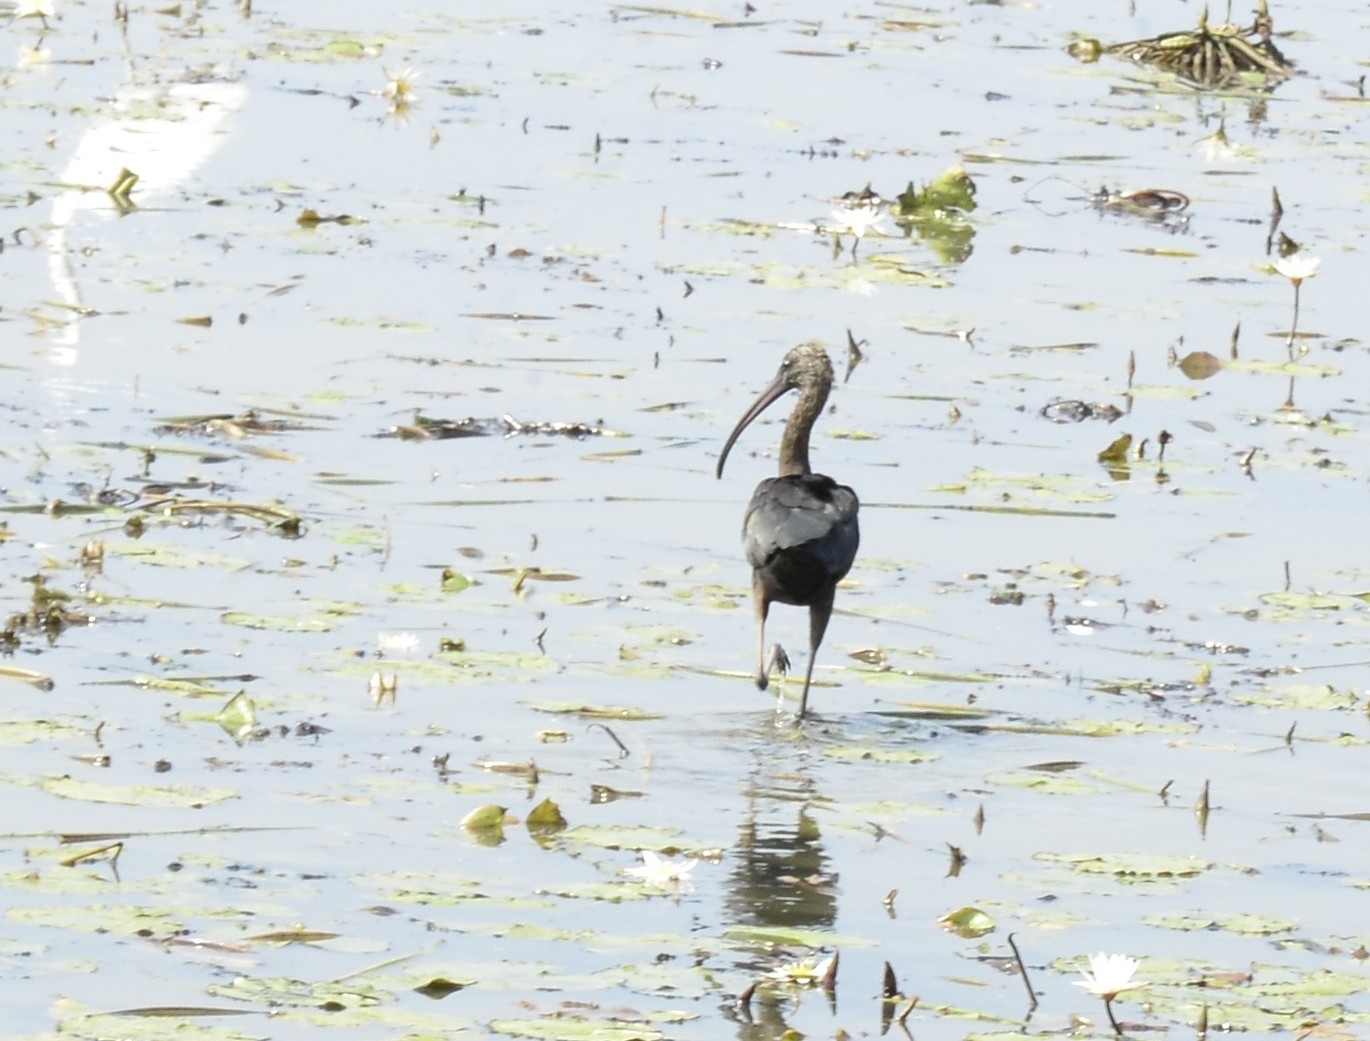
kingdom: Animalia
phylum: Chordata
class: Aves
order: Pelecaniformes
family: Threskiornithidae
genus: Plegadis
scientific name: Plegadis falcinellus
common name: Glossy ibis
